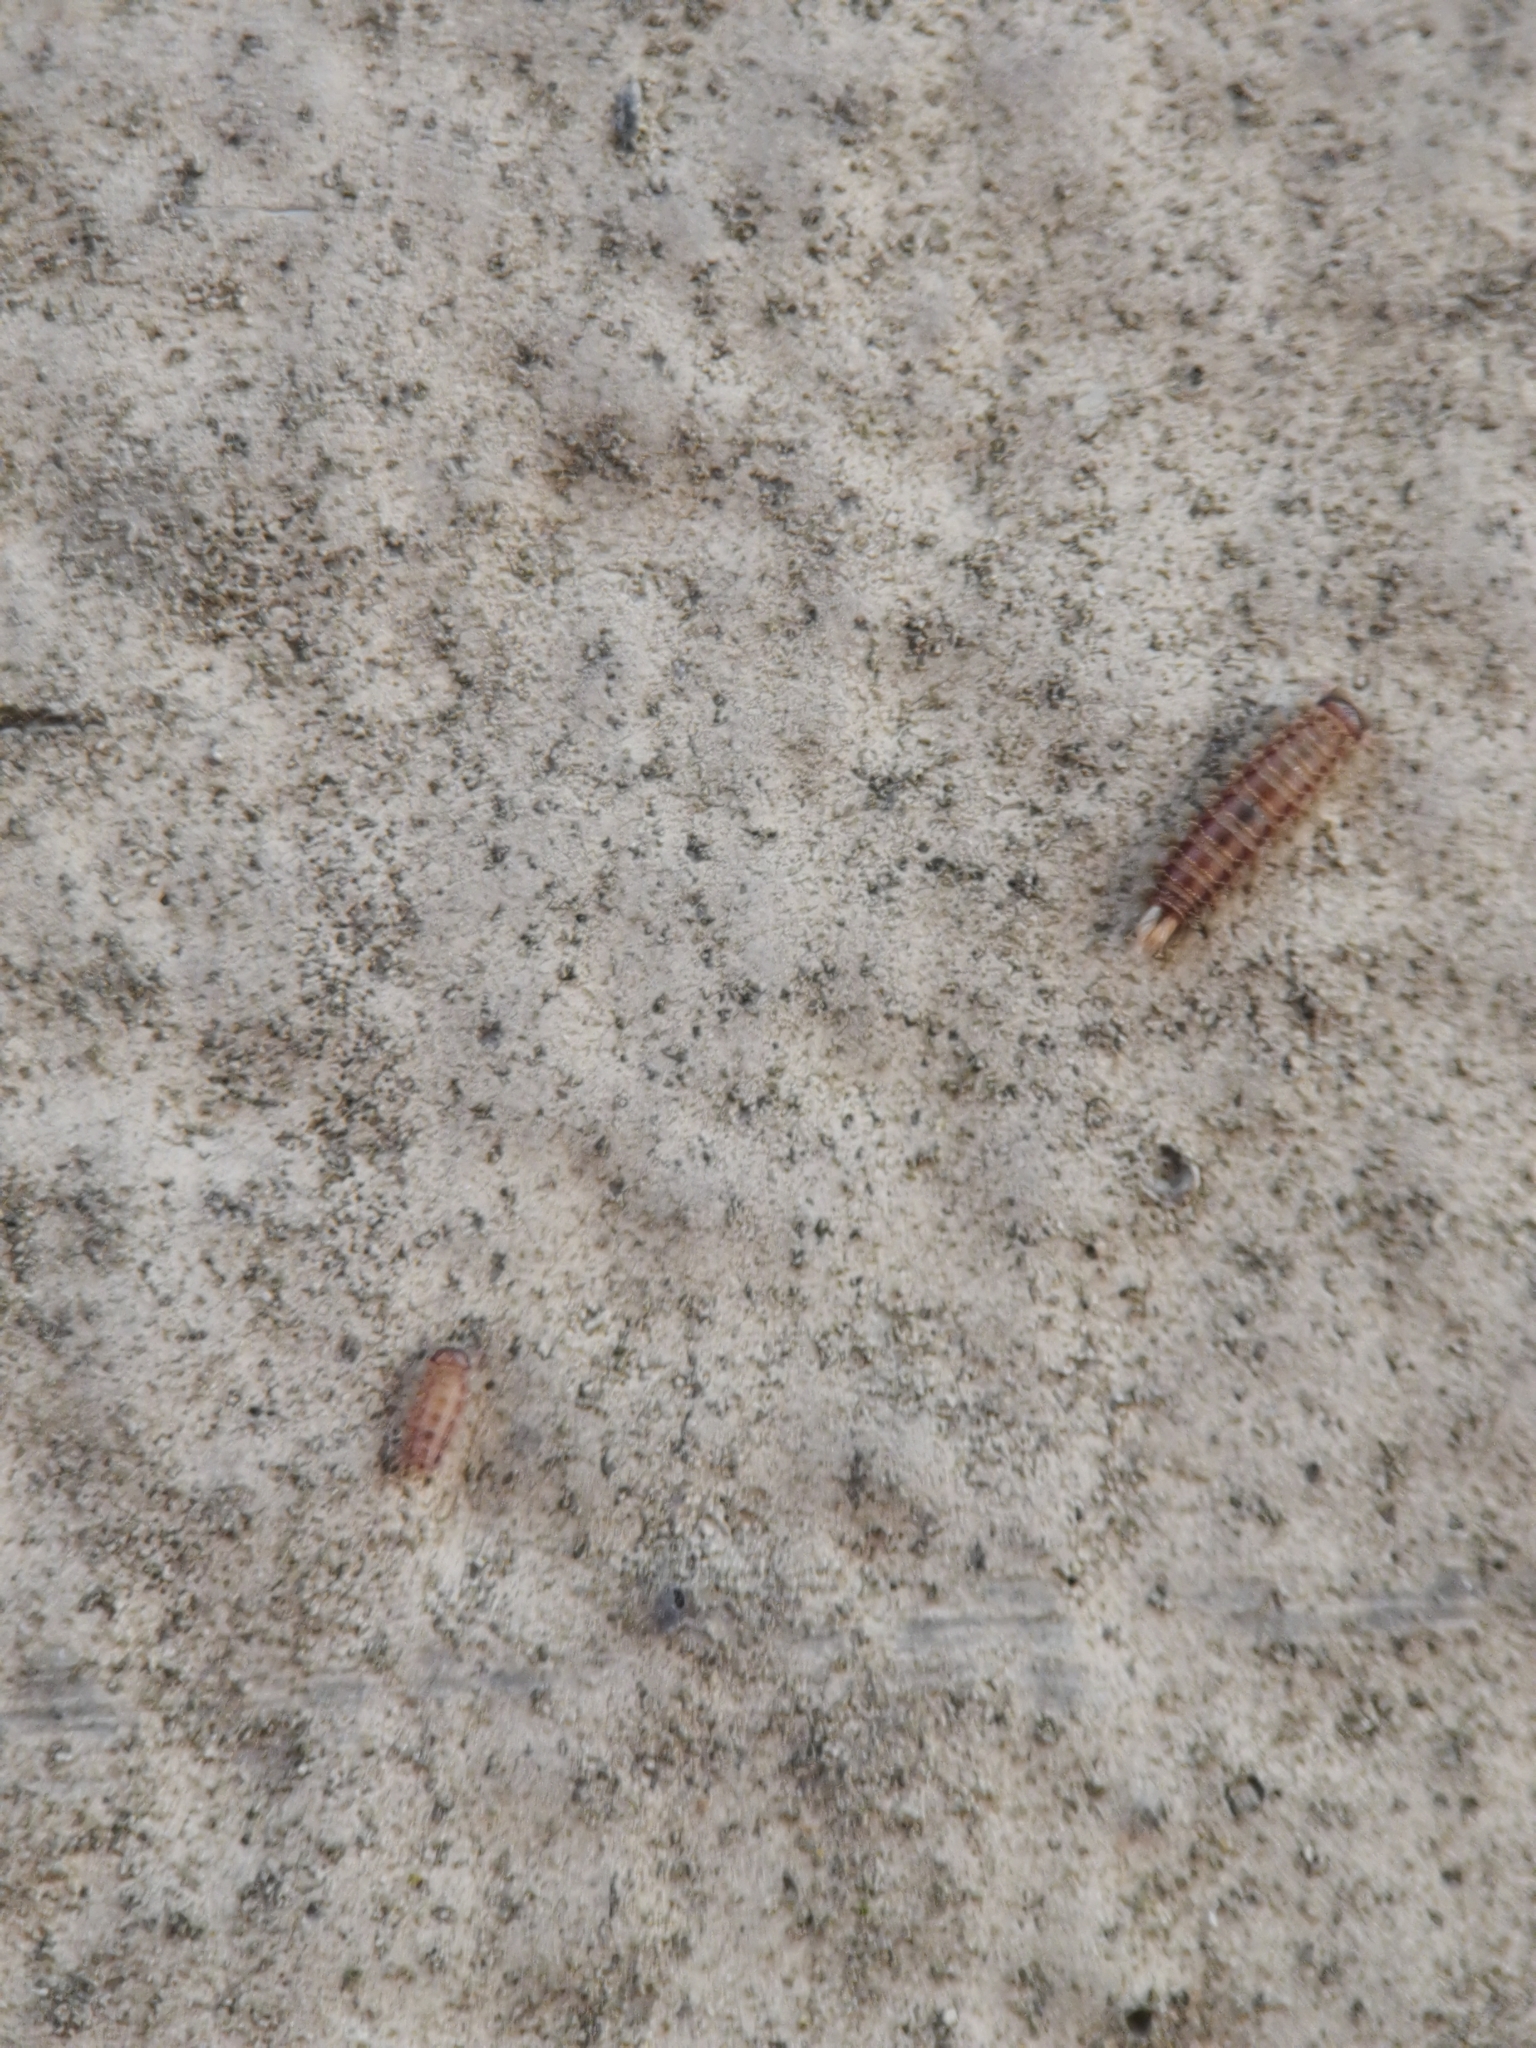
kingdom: Animalia
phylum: Arthropoda
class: Diplopoda
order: Polyxenida
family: Polyxenidae
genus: Polyxenus
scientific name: Polyxenus lagurus
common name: Bristly millipede
